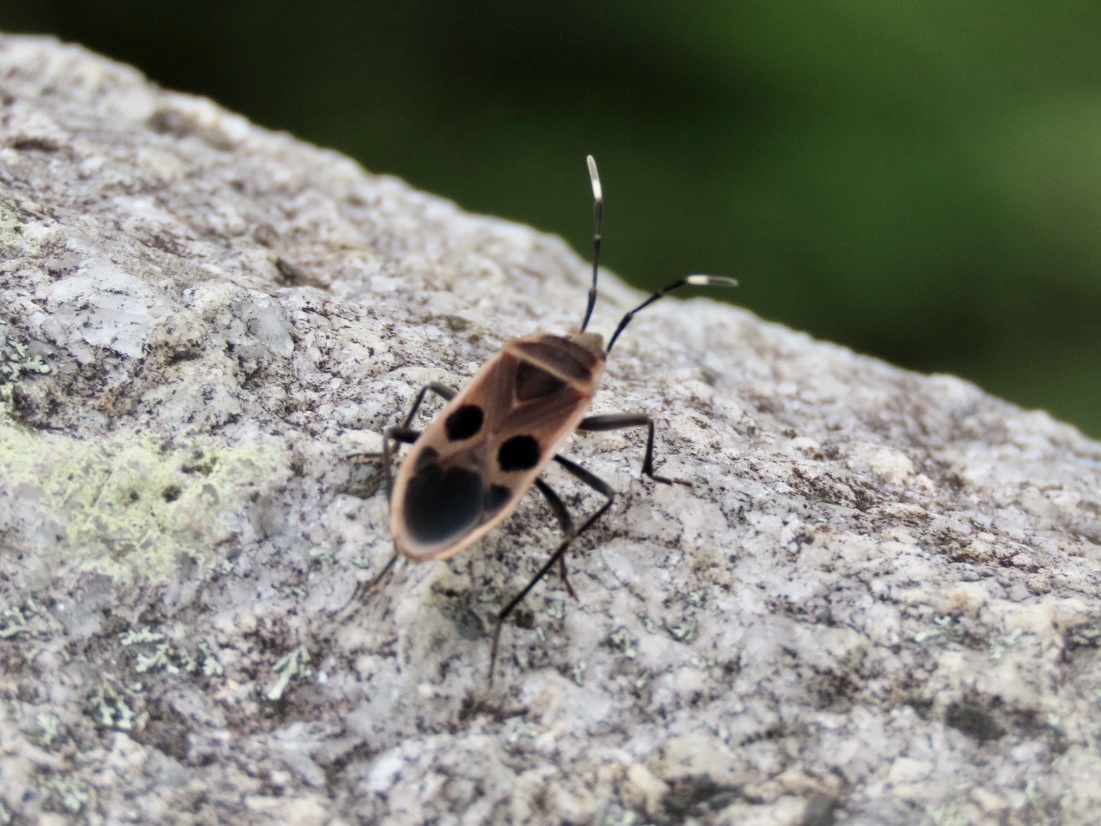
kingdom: Animalia
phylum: Arthropoda
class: Insecta
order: Hemiptera
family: Largidae
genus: Physopelta
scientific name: Physopelta gutta
